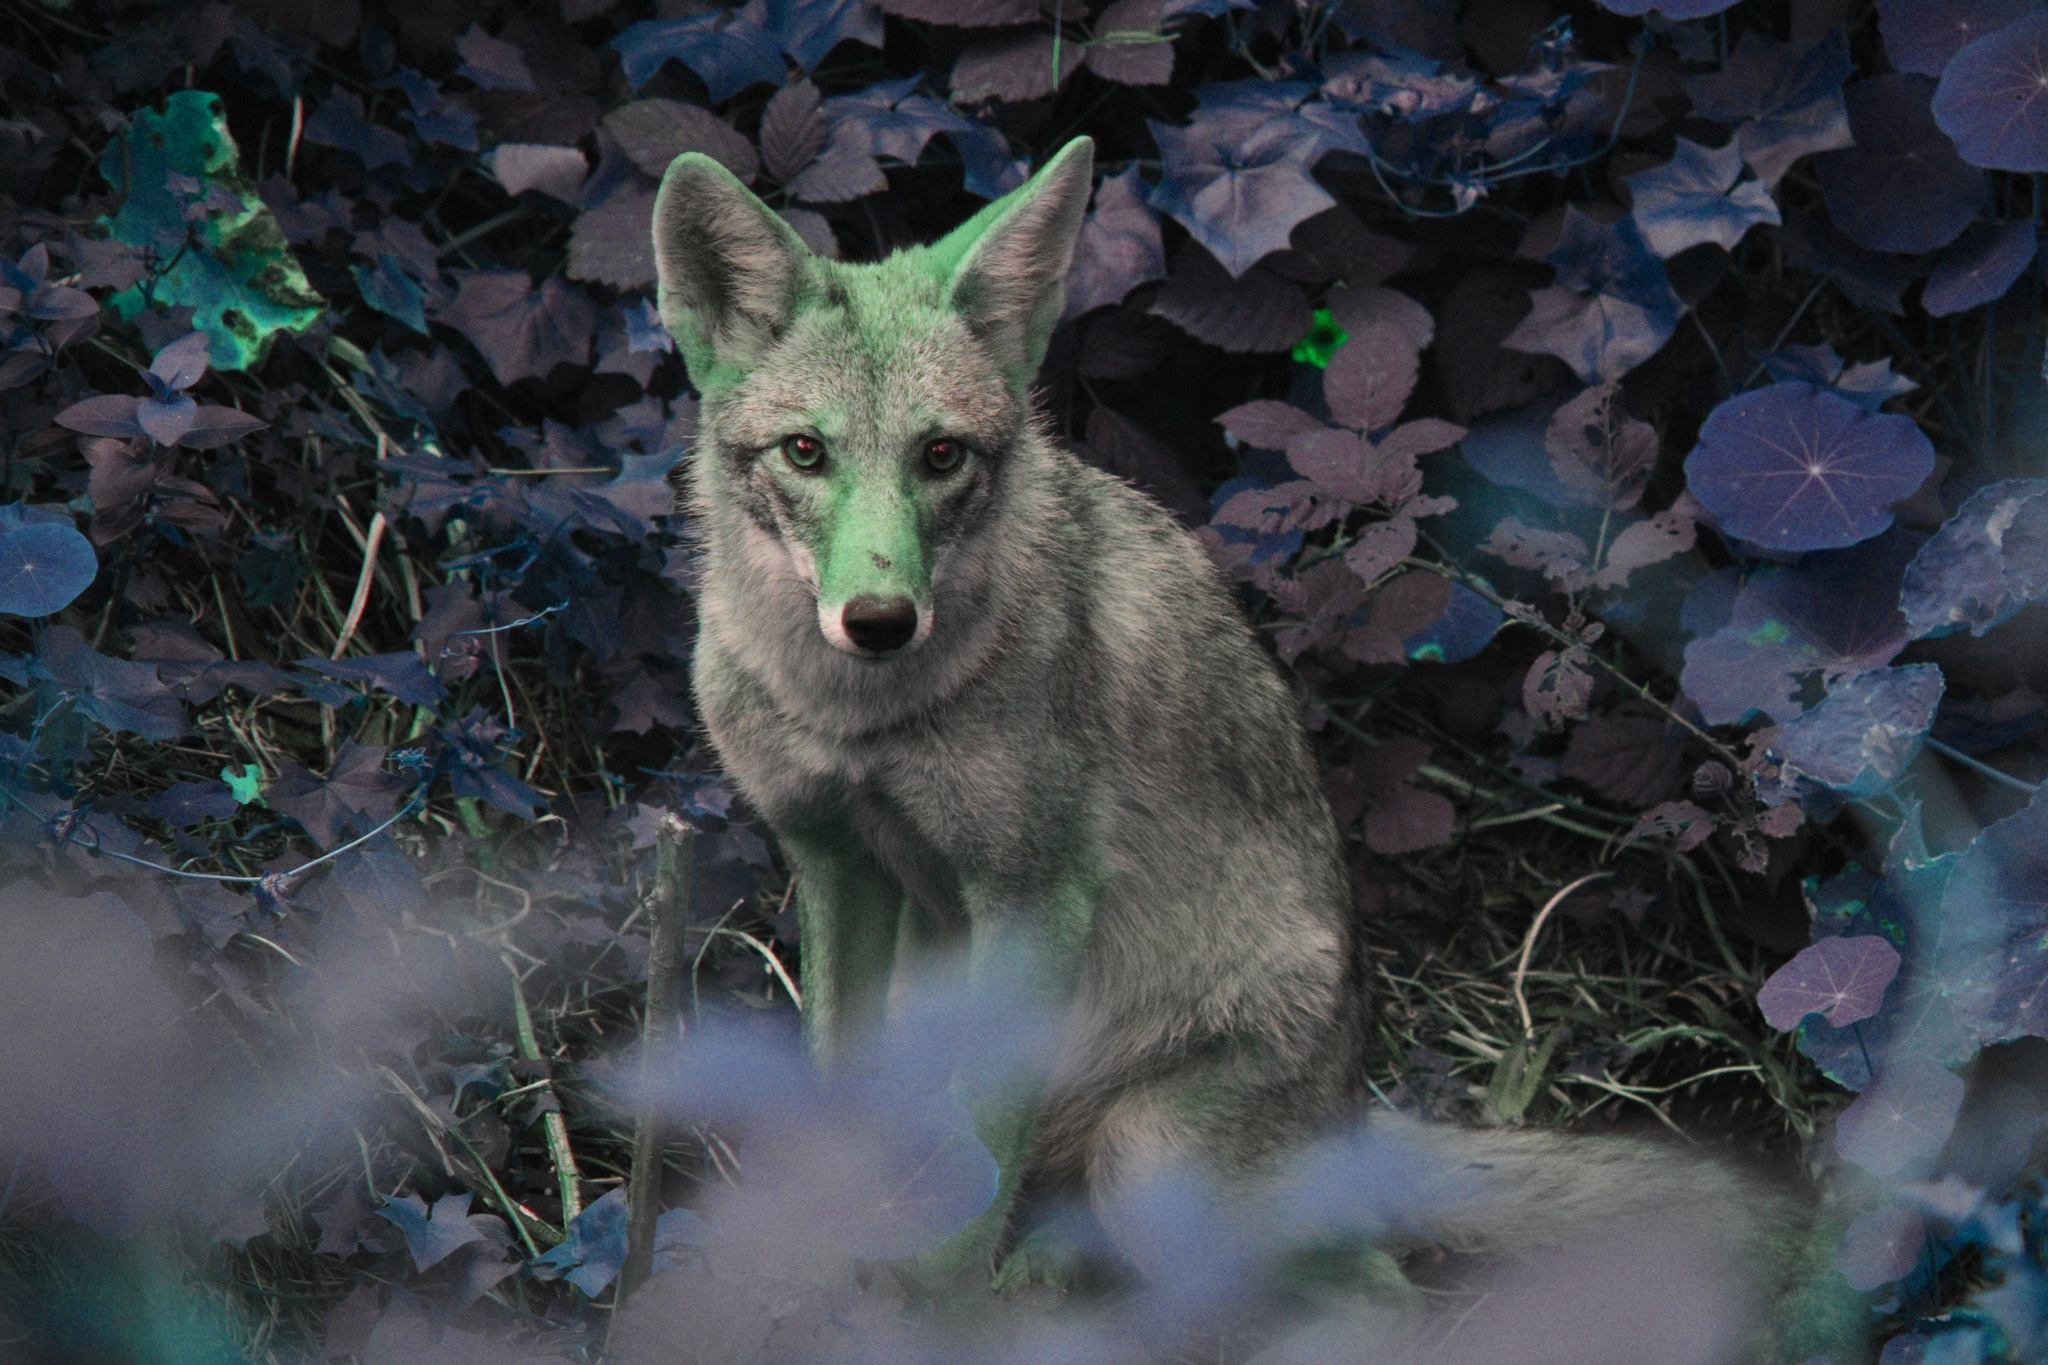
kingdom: Animalia
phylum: Chordata
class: Mammalia
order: Carnivora
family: Canidae
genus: Canis
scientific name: Canis latrans
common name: Coyote
